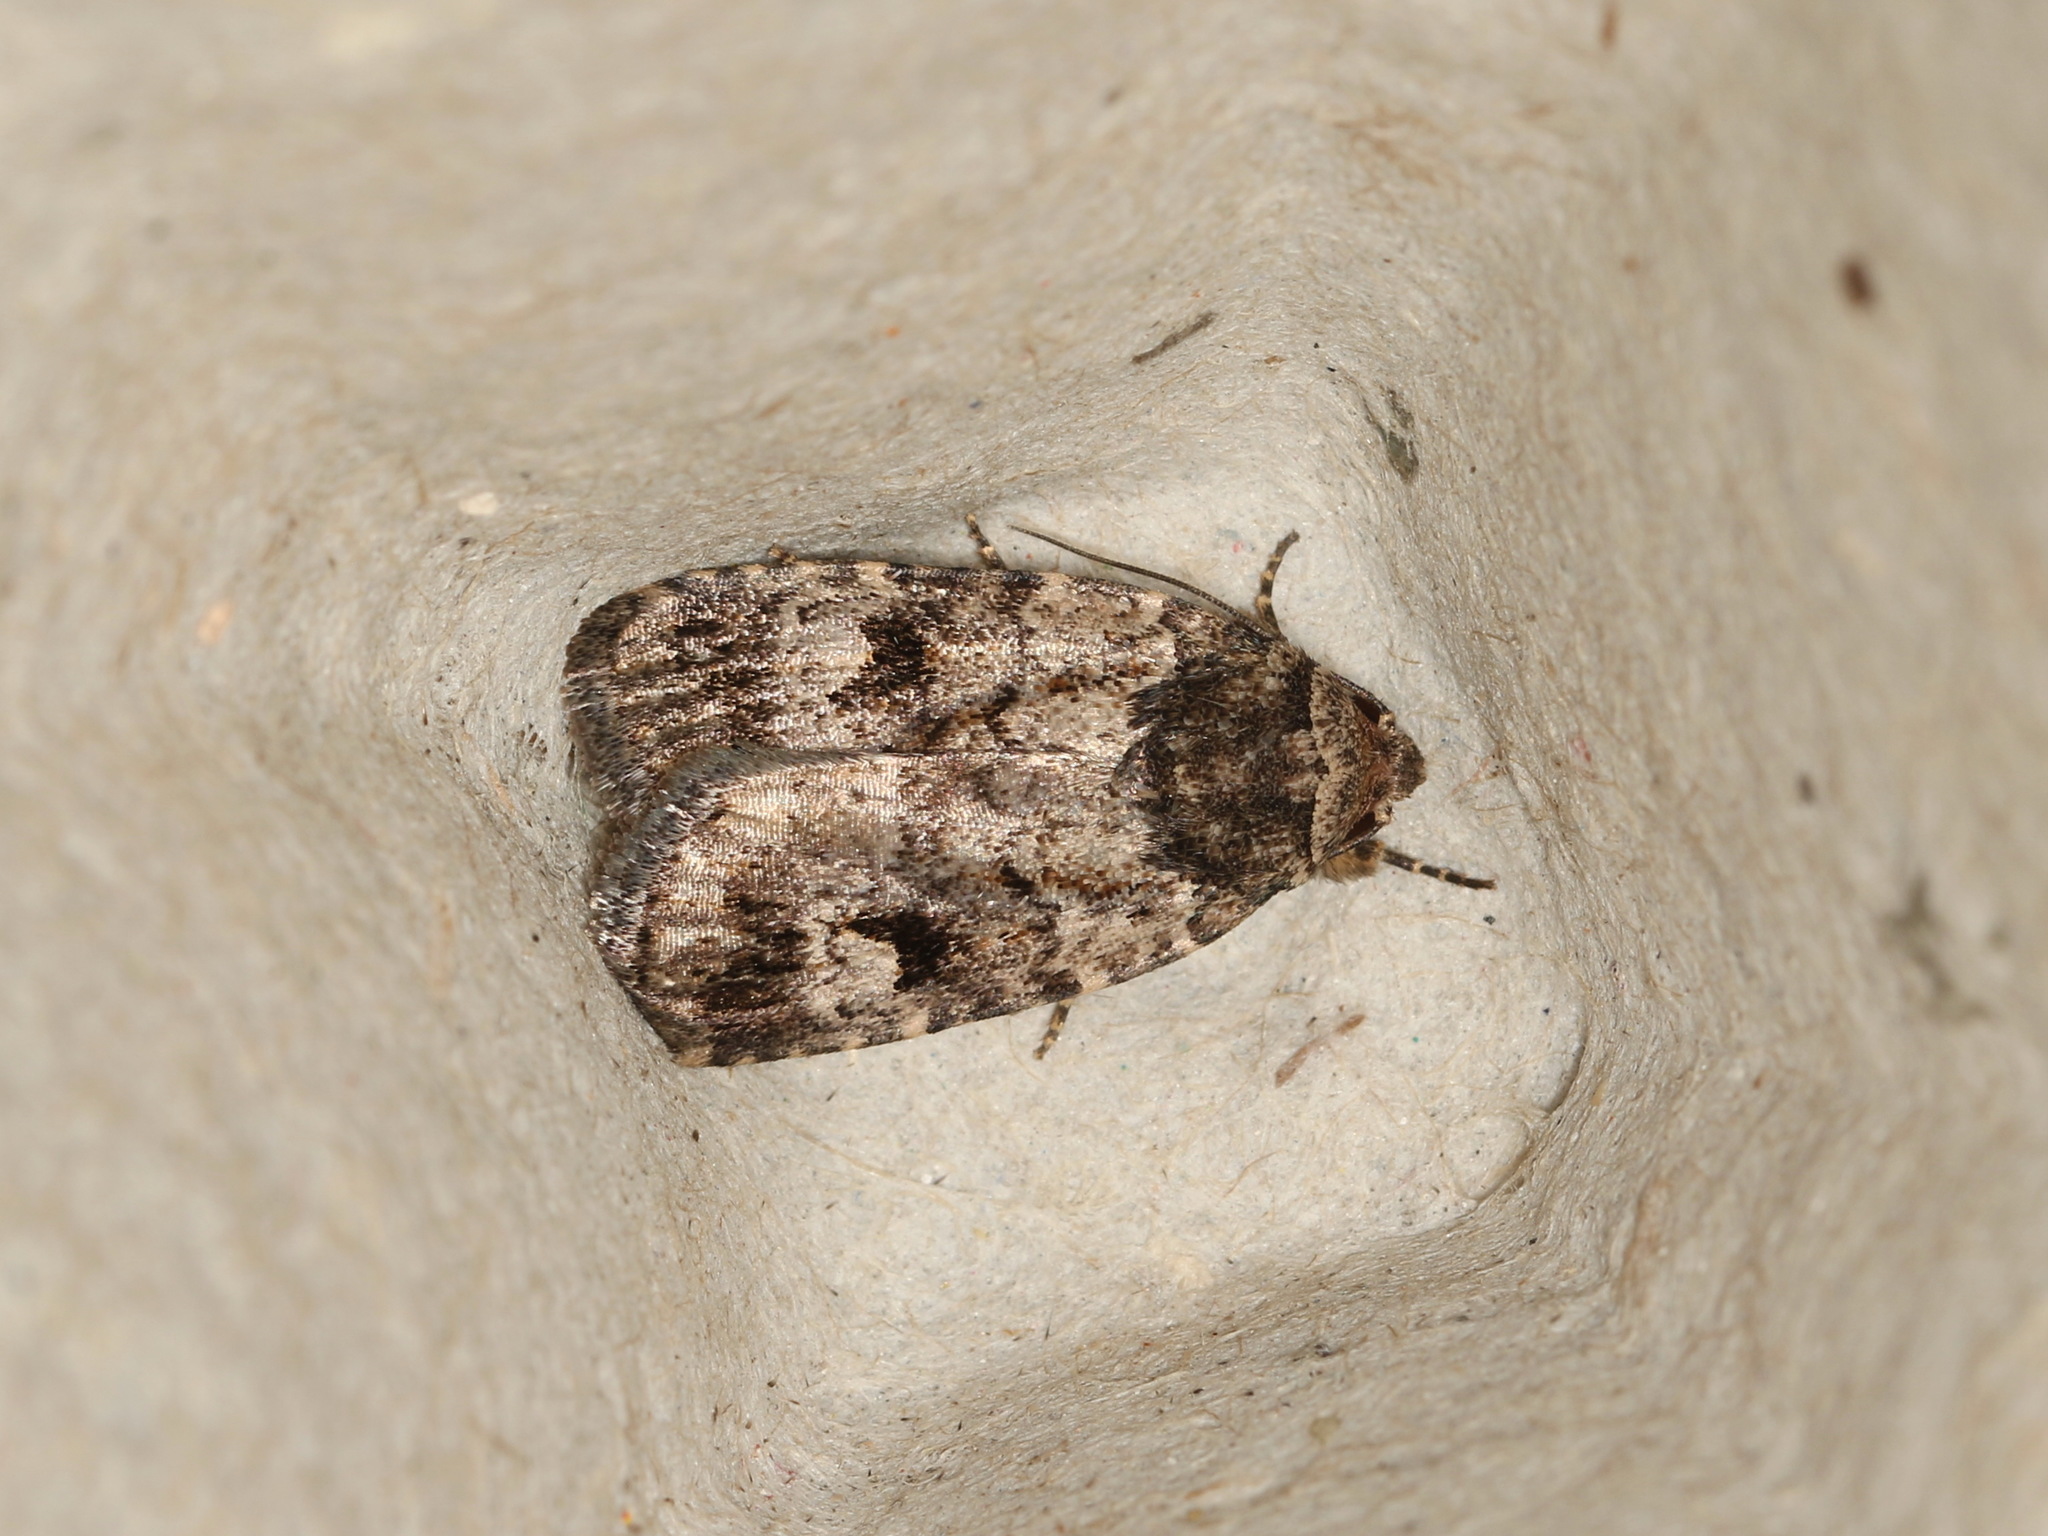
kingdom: Animalia
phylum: Arthropoda
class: Insecta
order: Lepidoptera
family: Noctuidae
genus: Thoracolopha
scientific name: Thoracolopha flexirena
